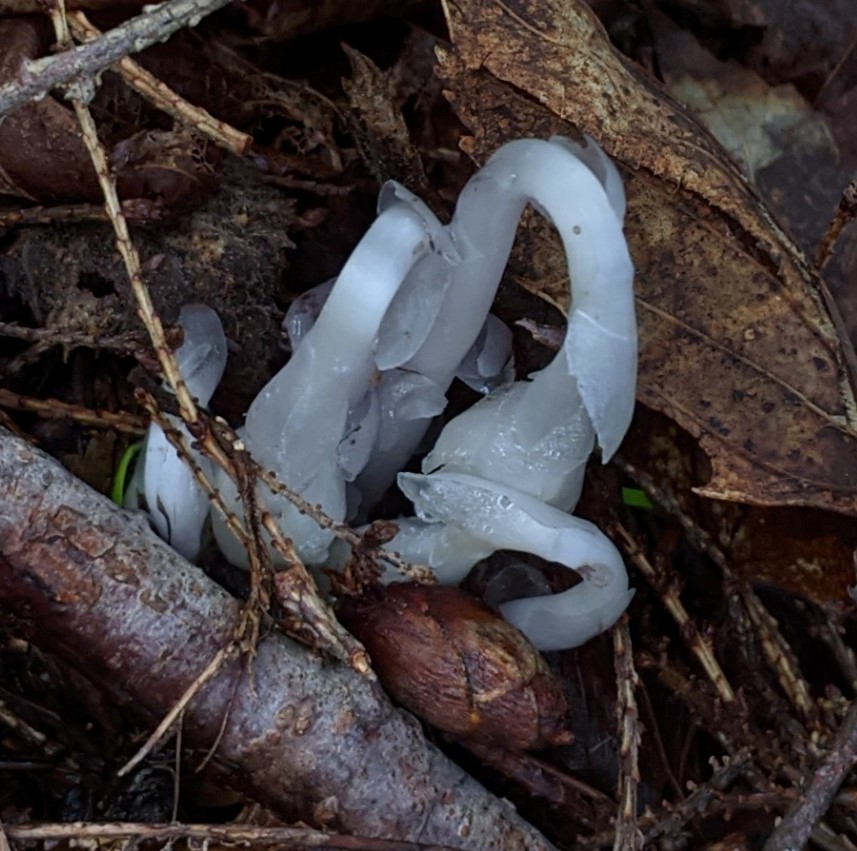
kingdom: Plantae
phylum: Tracheophyta
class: Magnoliopsida
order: Ericales
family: Ericaceae
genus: Monotropa
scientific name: Monotropa uniflora
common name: Convulsion root
